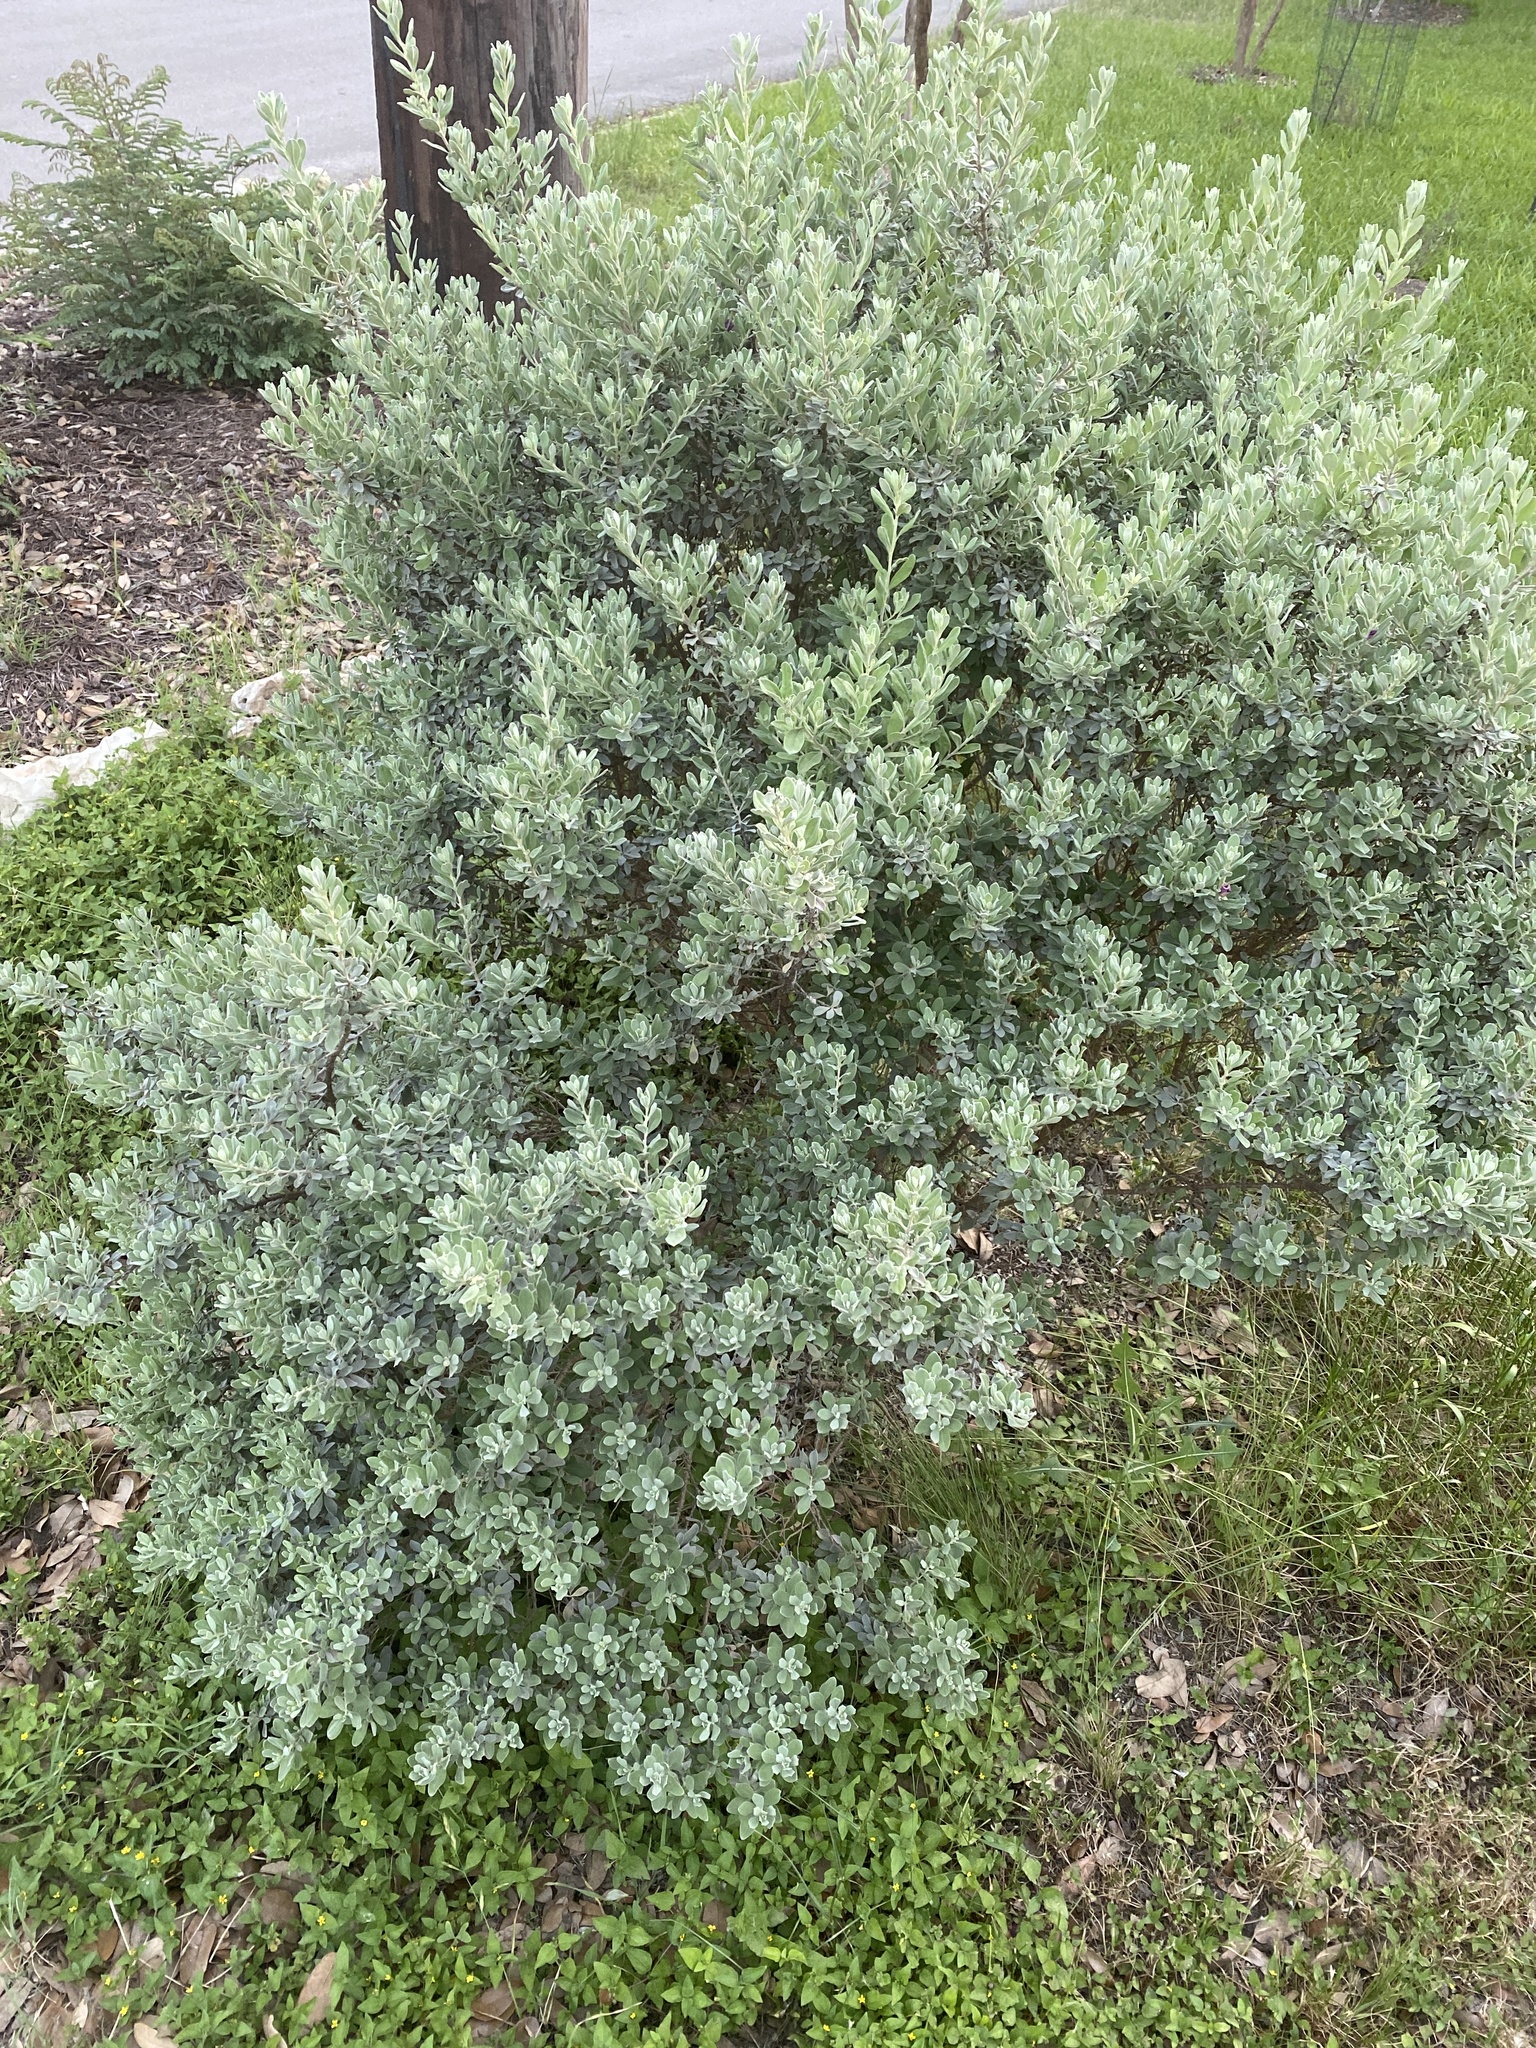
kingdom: Plantae
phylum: Tracheophyta
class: Magnoliopsida
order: Lamiales
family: Scrophulariaceae
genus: Leucophyllum
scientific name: Leucophyllum frutescens
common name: Texas silverleaf
